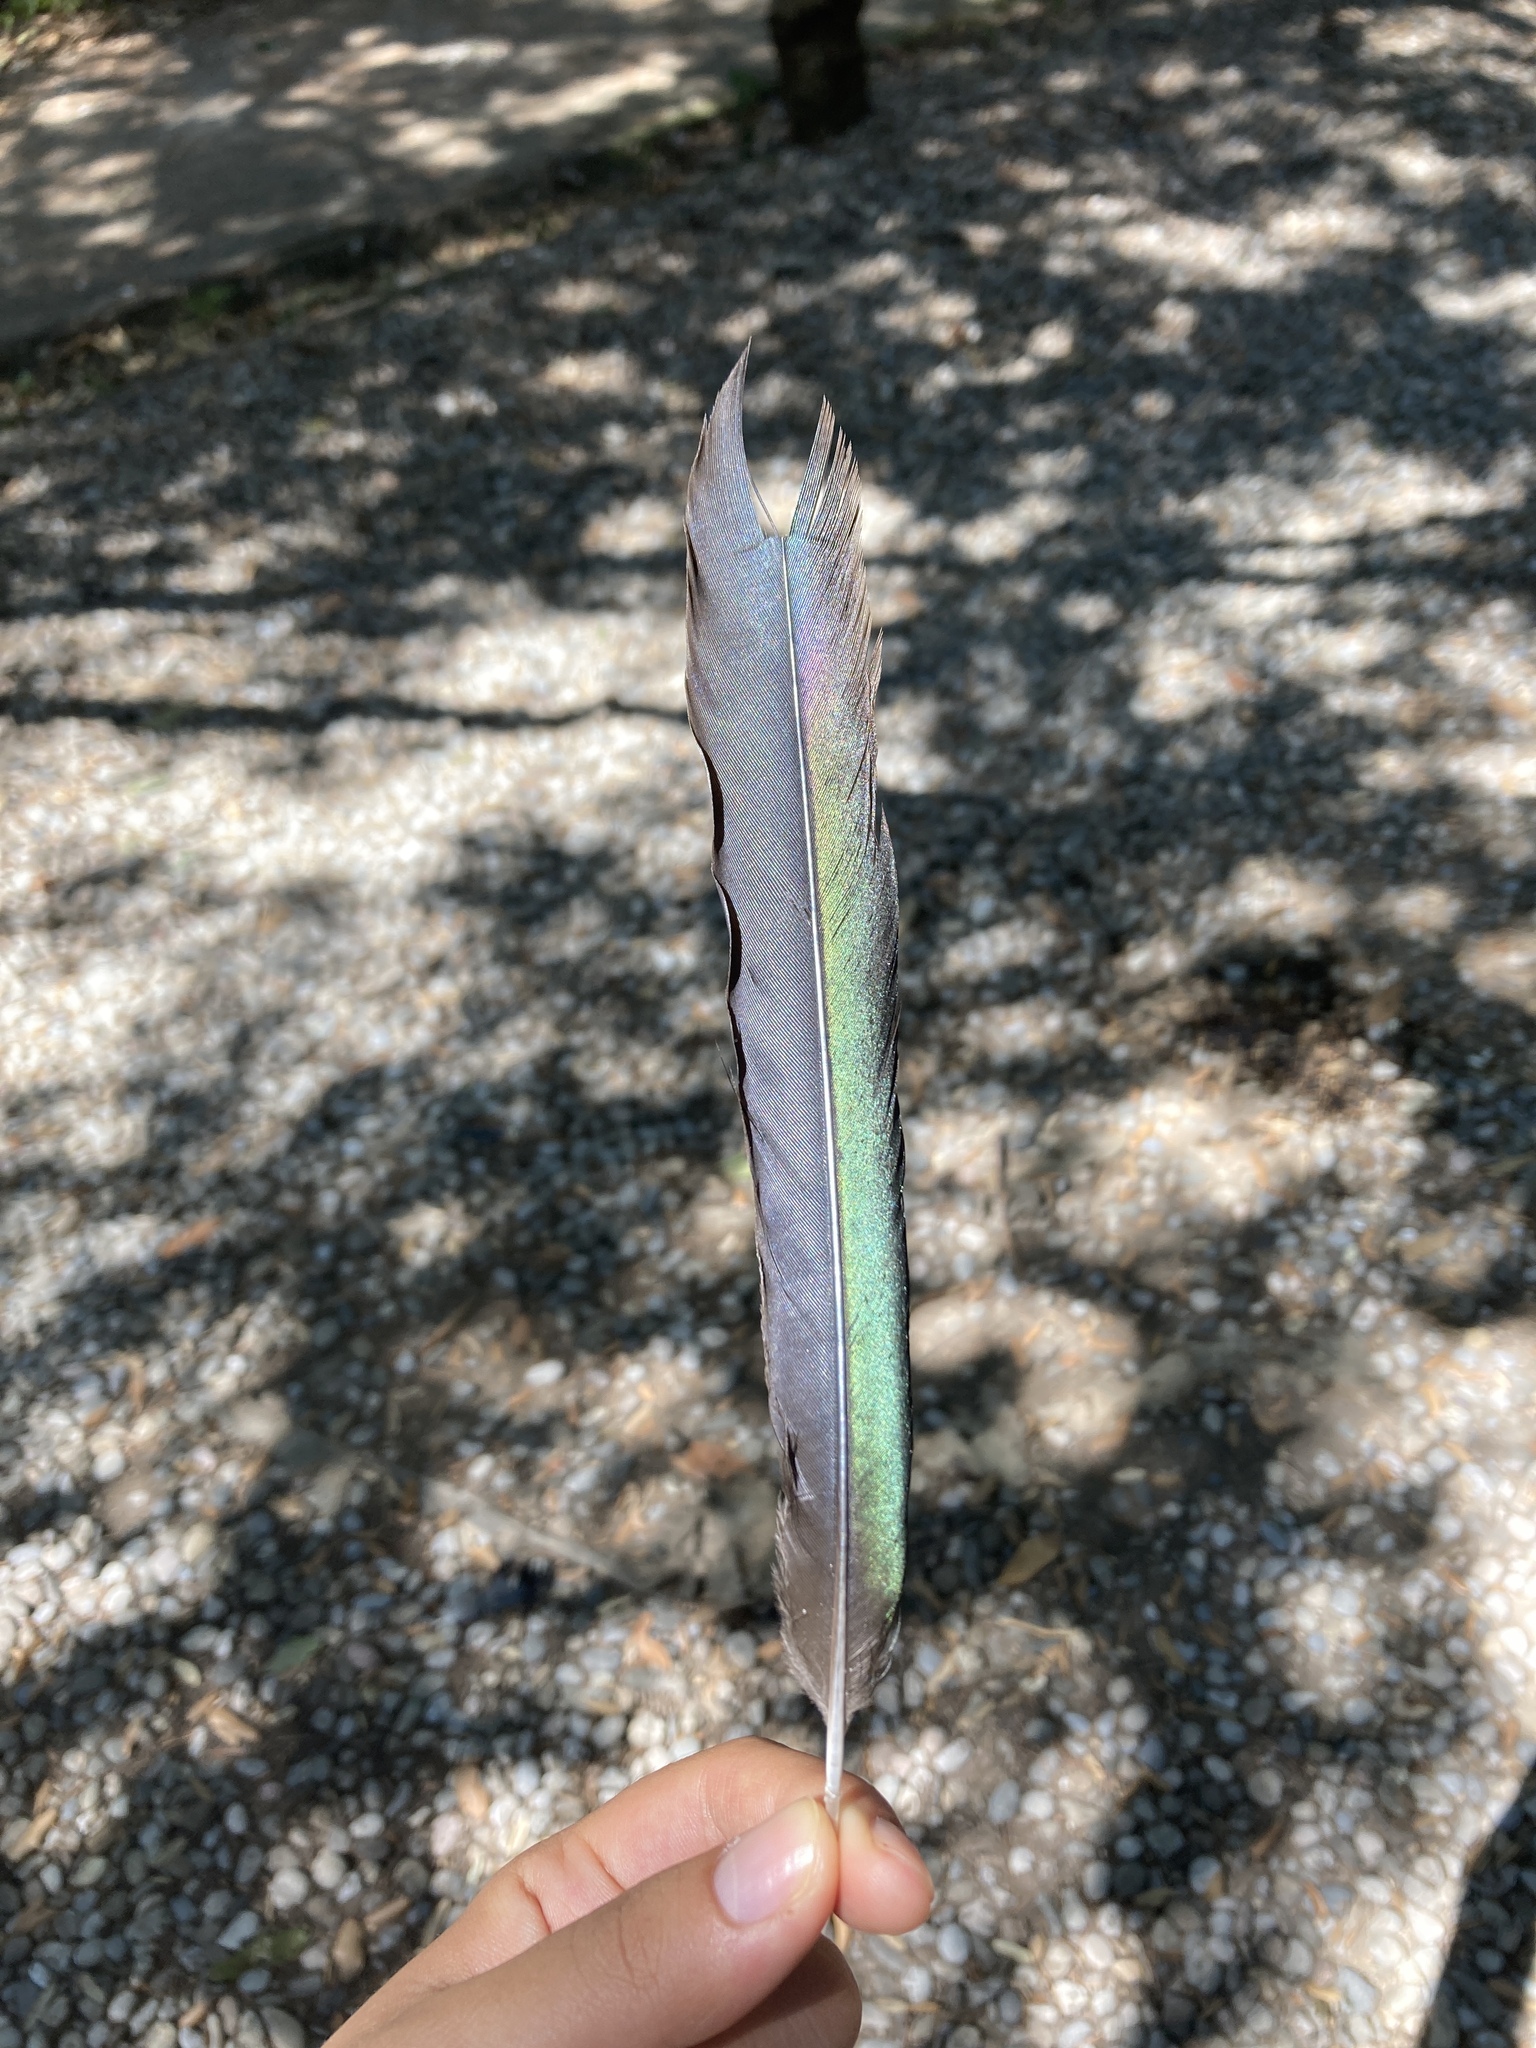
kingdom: Animalia
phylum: Chordata
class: Aves
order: Passeriformes
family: Corvidae
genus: Pica
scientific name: Pica pica
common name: Eurasian magpie
